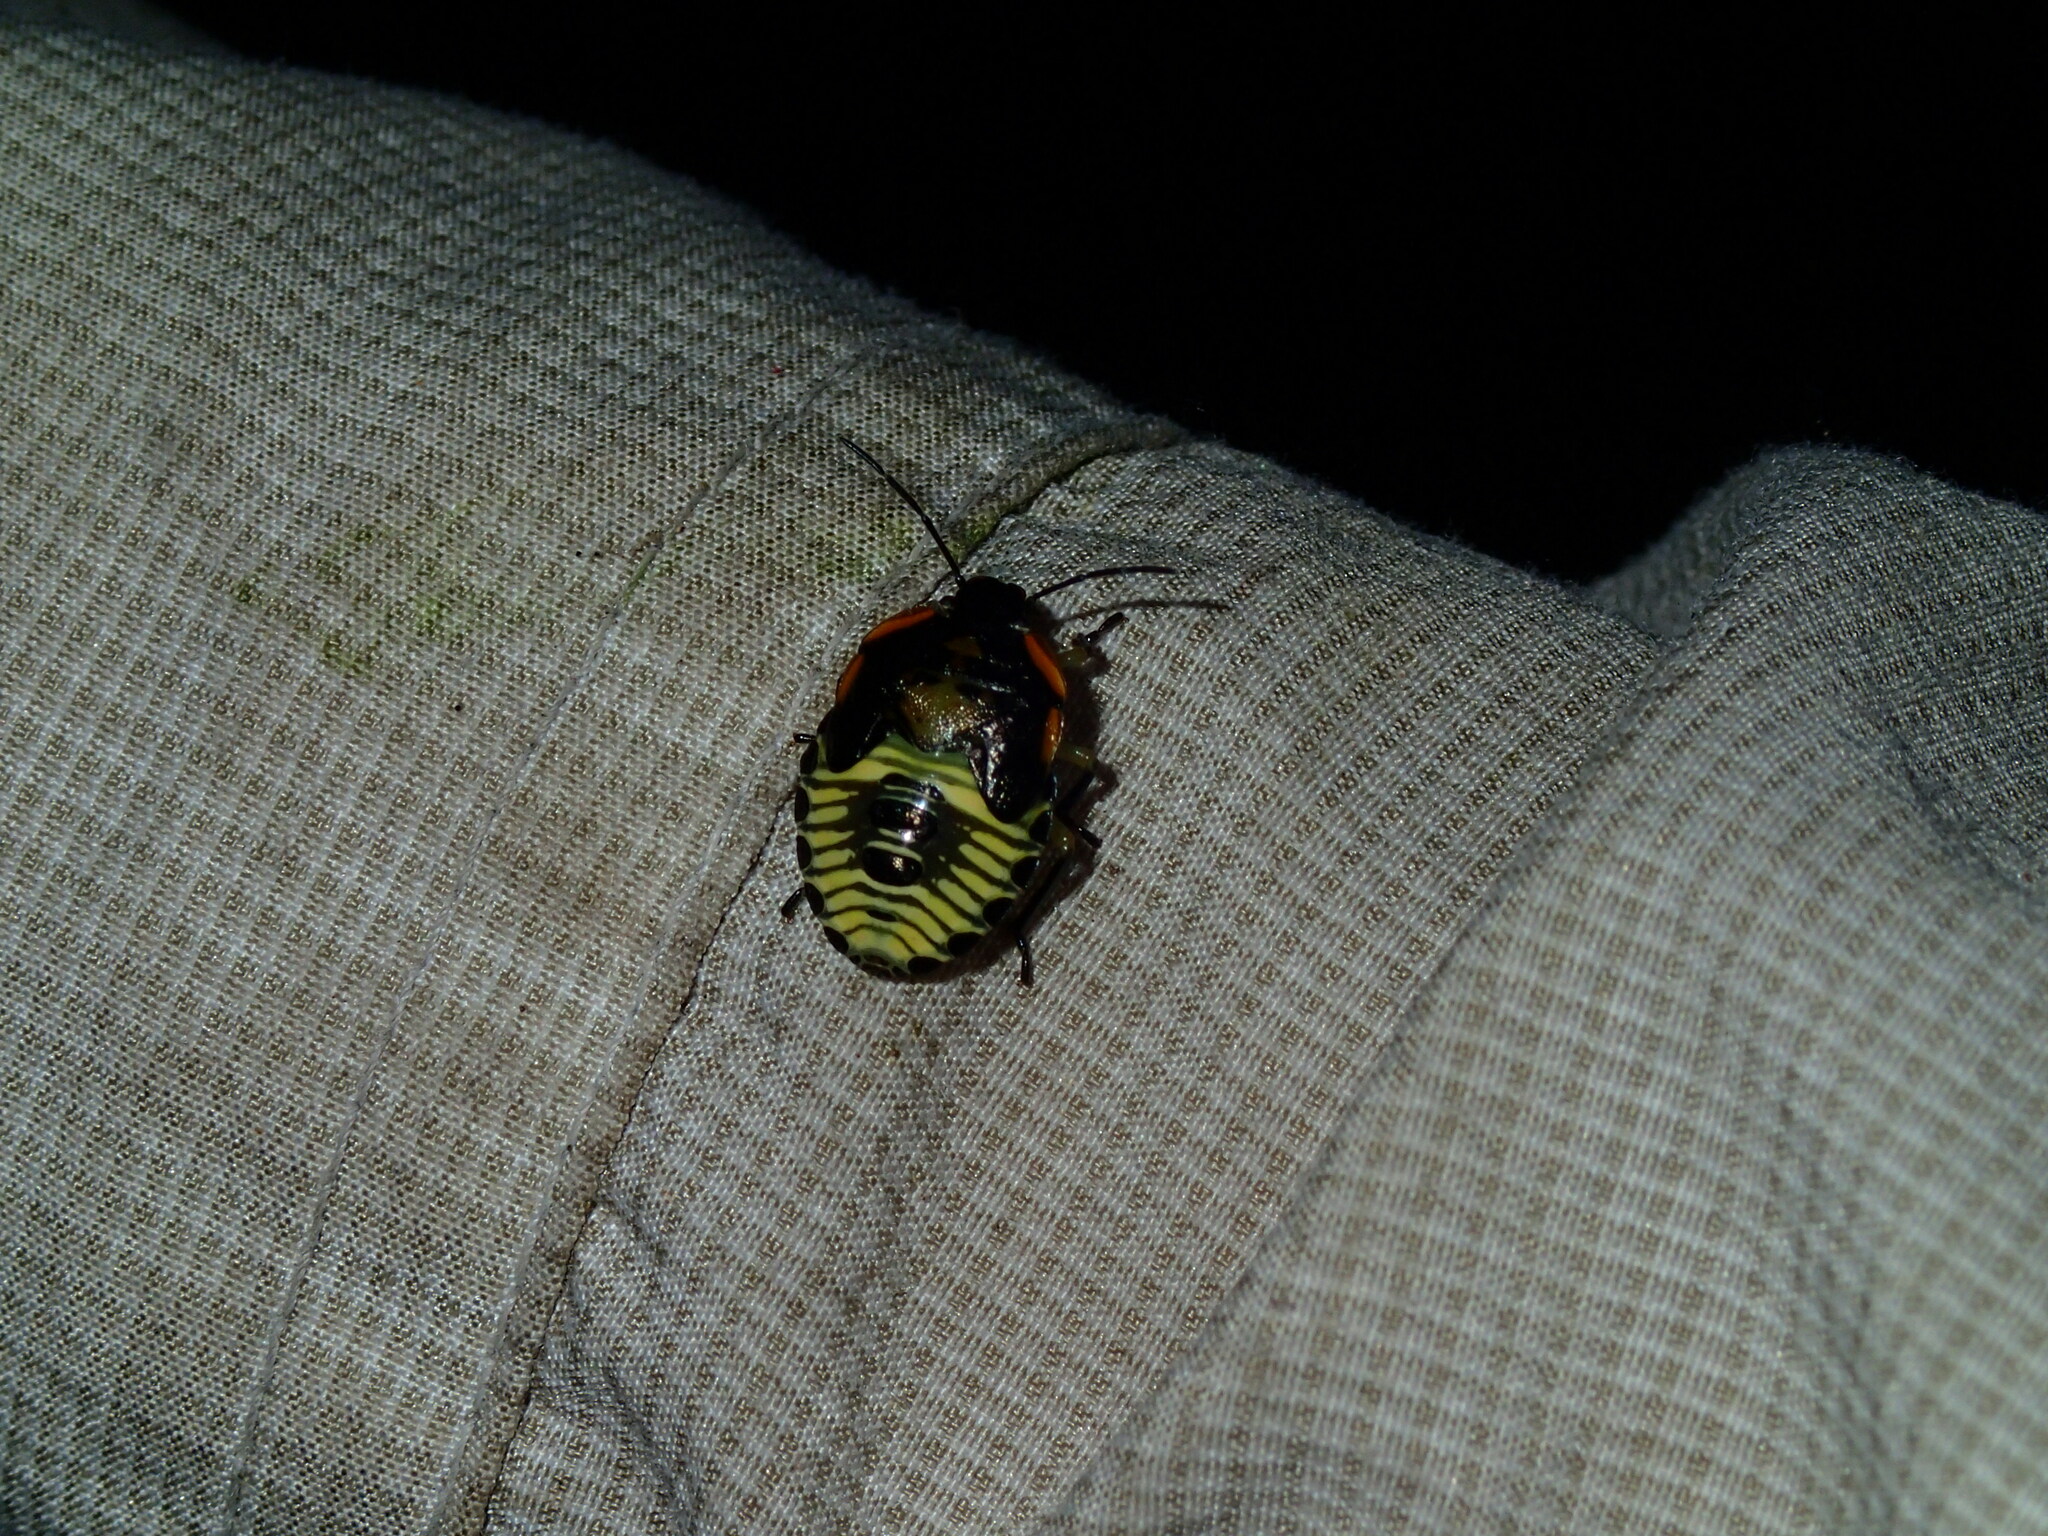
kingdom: Animalia
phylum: Arthropoda
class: Insecta
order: Hemiptera
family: Pentatomidae
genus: Chinavia
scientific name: Chinavia hilaris
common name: Green stink bug
